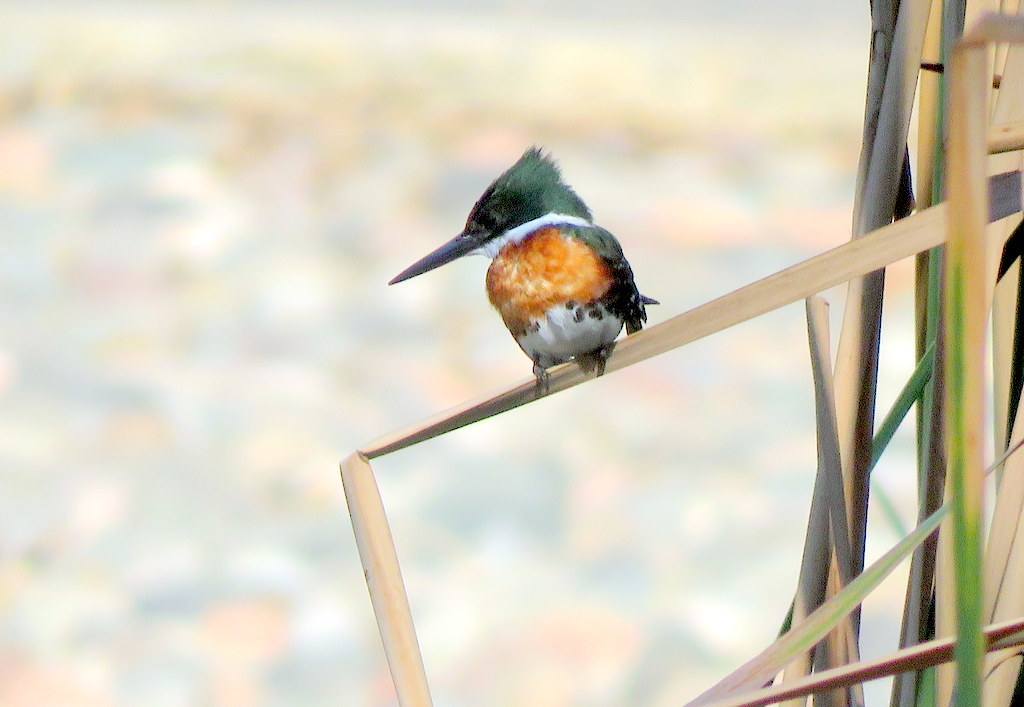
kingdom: Animalia
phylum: Chordata
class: Aves
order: Coraciiformes
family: Alcedinidae
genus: Chloroceryle
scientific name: Chloroceryle americana
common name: Green kingfisher
